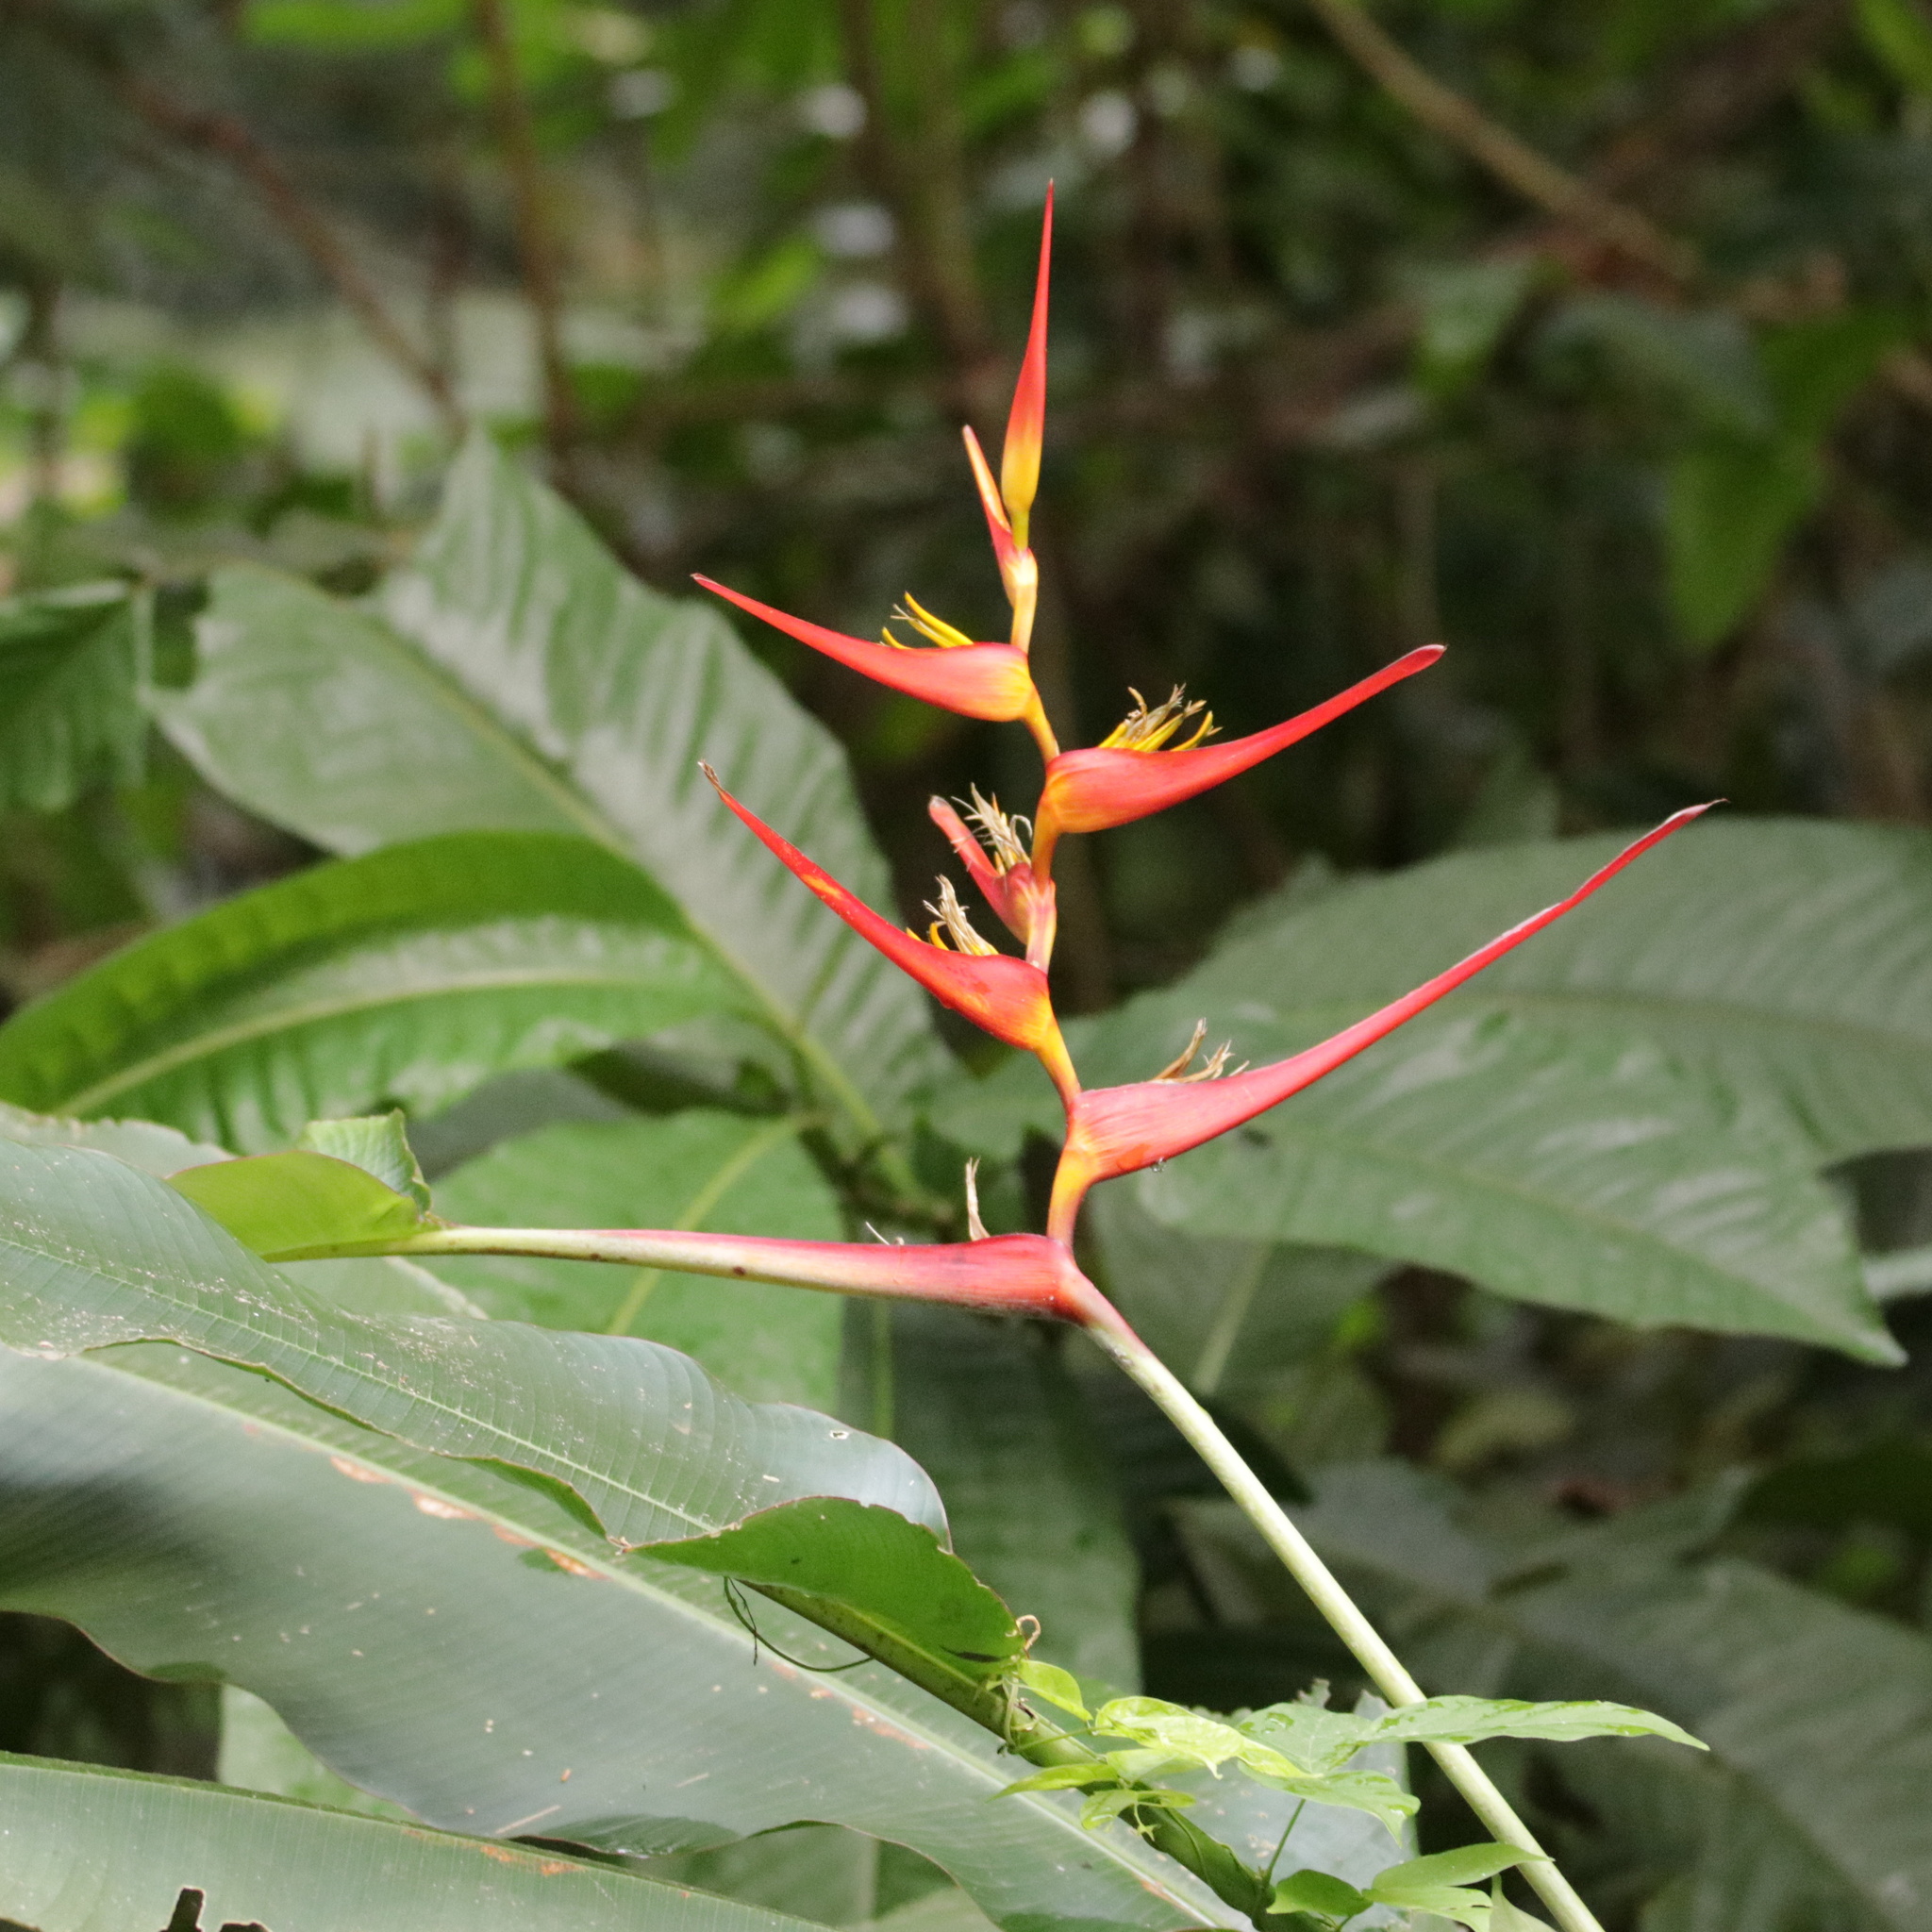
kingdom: Plantae
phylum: Tracheophyta
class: Liliopsida
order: Zingiberales
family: Heliconiaceae
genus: Heliconia
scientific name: Heliconia latispatha
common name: Expanded lobsterclaw
